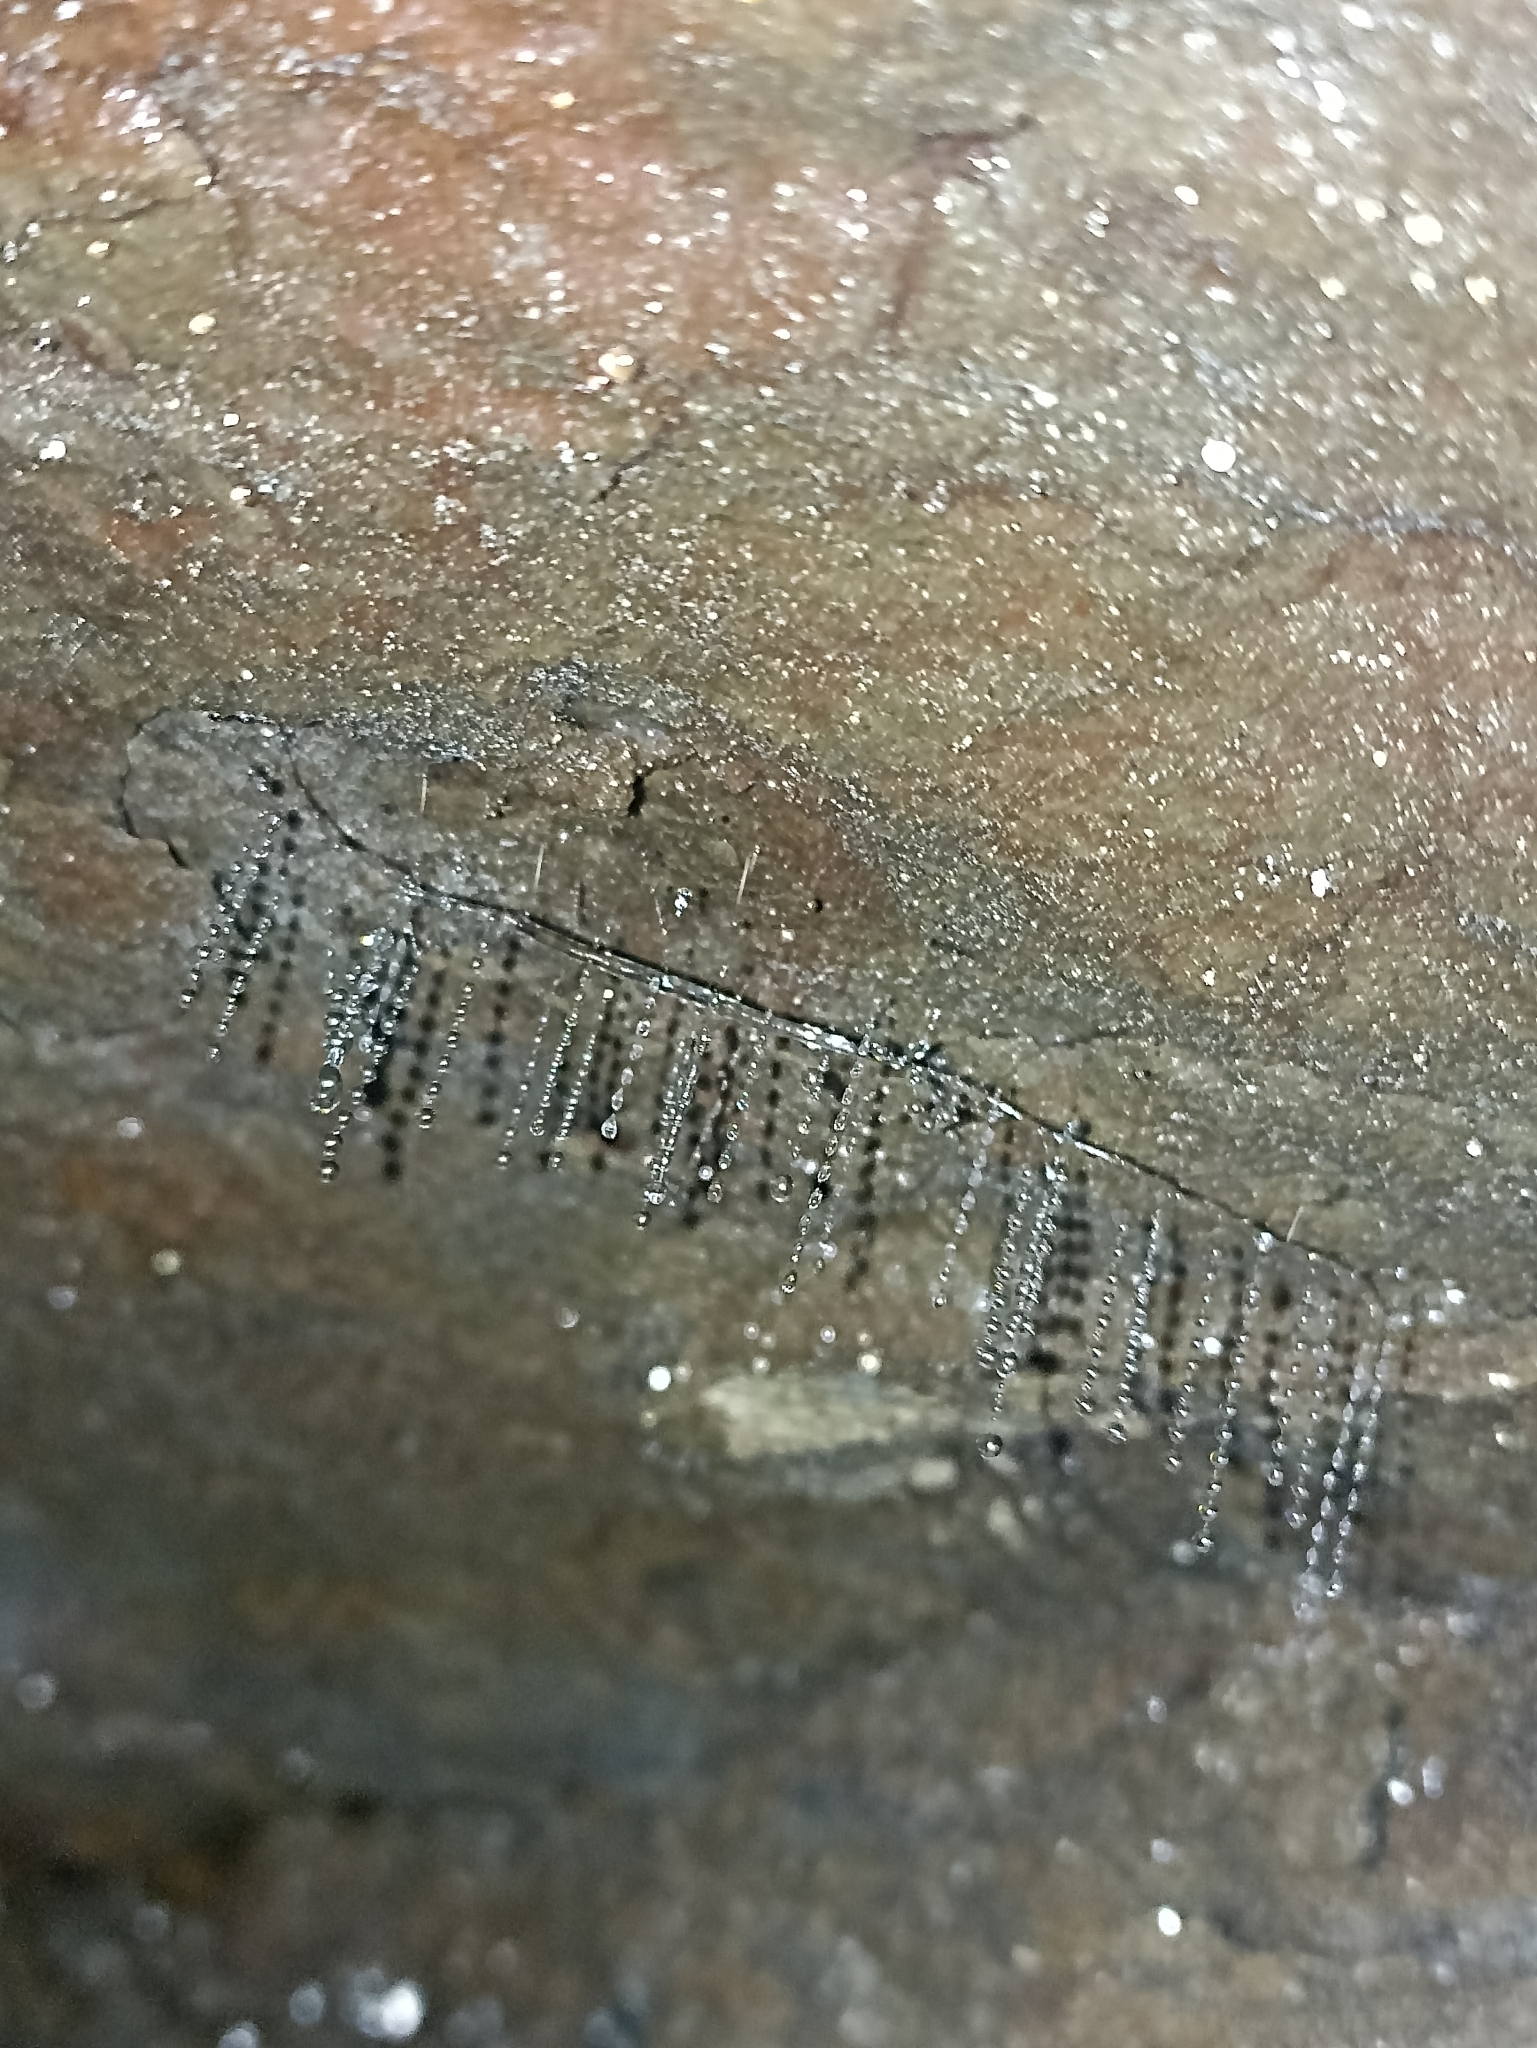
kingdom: Animalia
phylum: Arthropoda
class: Insecta
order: Diptera
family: Keroplatidae
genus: Arachnocampa
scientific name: Arachnocampa luminosa
